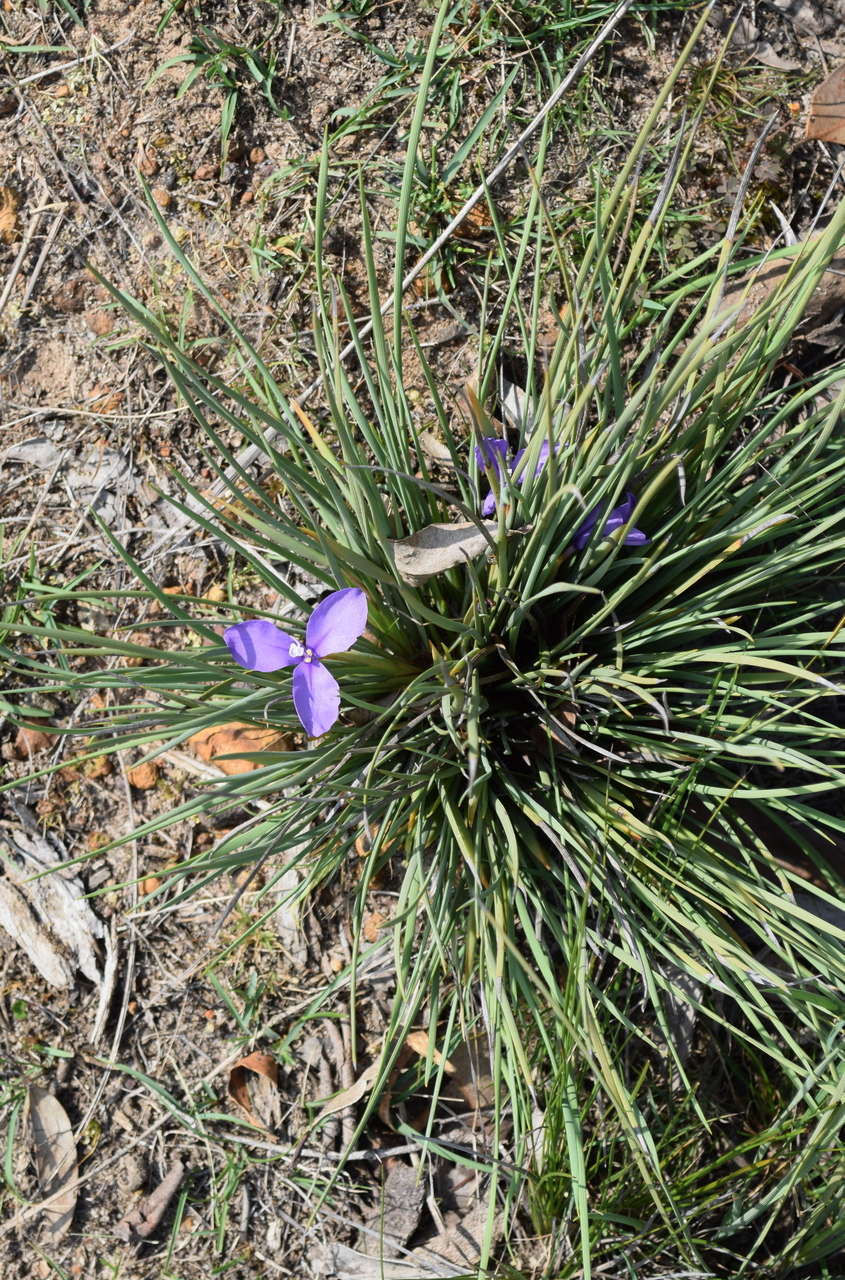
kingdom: Plantae
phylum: Tracheophyta
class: Liliopsida
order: Asparagales
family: Iridaceae
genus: Patersonia
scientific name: Patersonia fragilis
